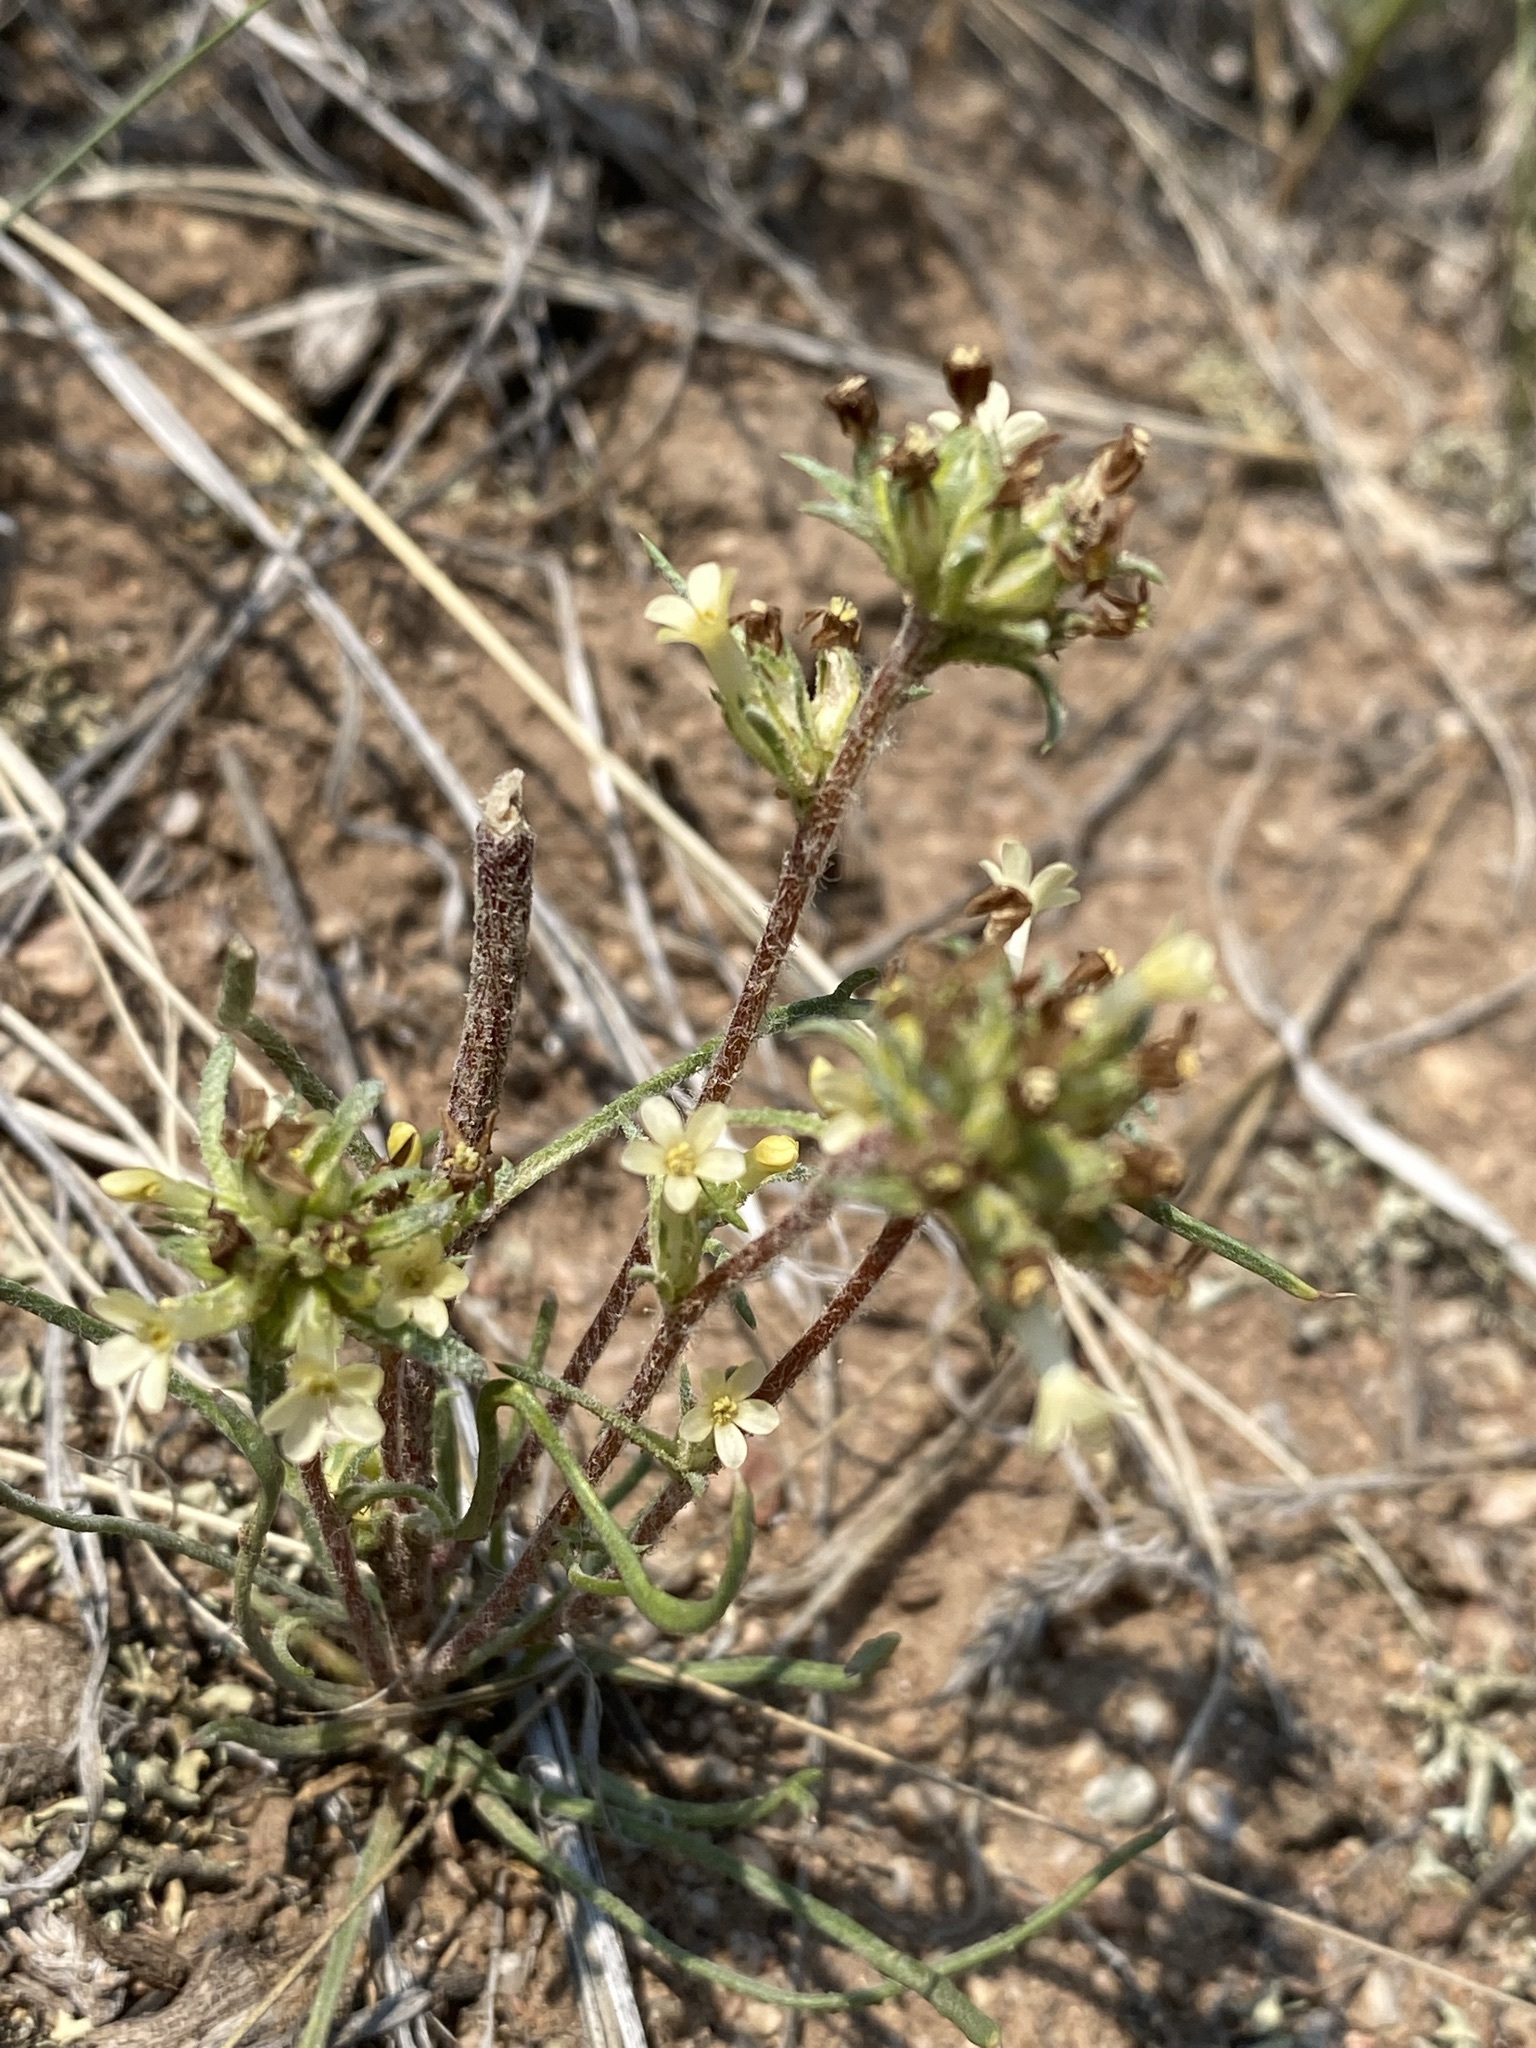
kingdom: Plantae
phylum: Tracheophyta
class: Magnoliopsida
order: Ericales
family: Polemoniaceae
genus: Ipomopsis
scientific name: Ipomopsis spicata
